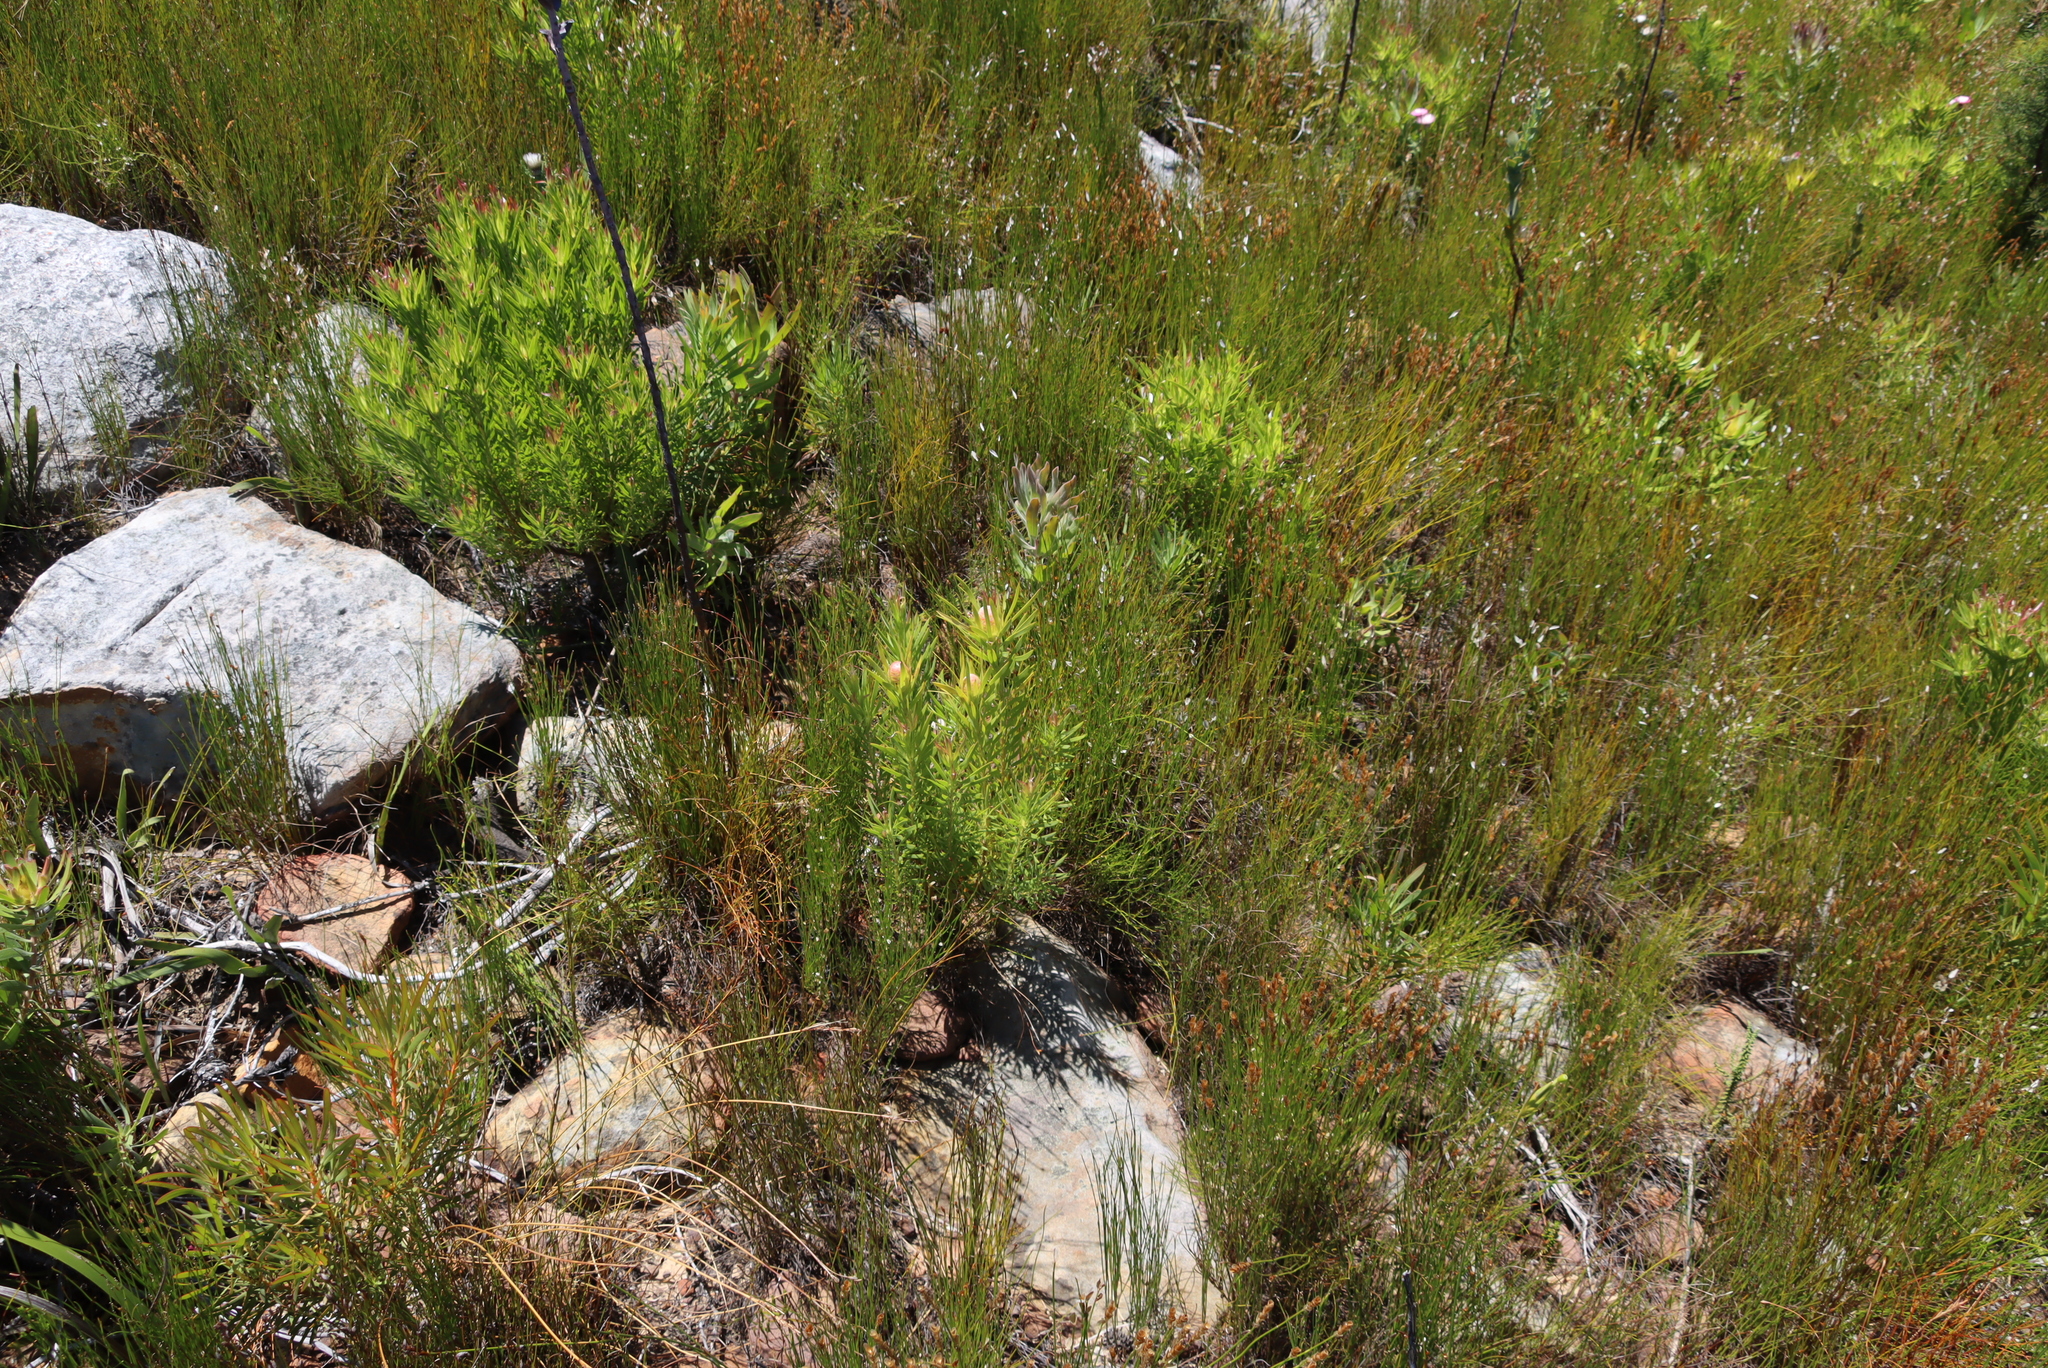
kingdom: Plantae
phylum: Tracheophyta
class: Magnoliopsida
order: Proteales
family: Proteaceae
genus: Leucadendron
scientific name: Leucadendron xanthoconus
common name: Sickle-leaf conebush
